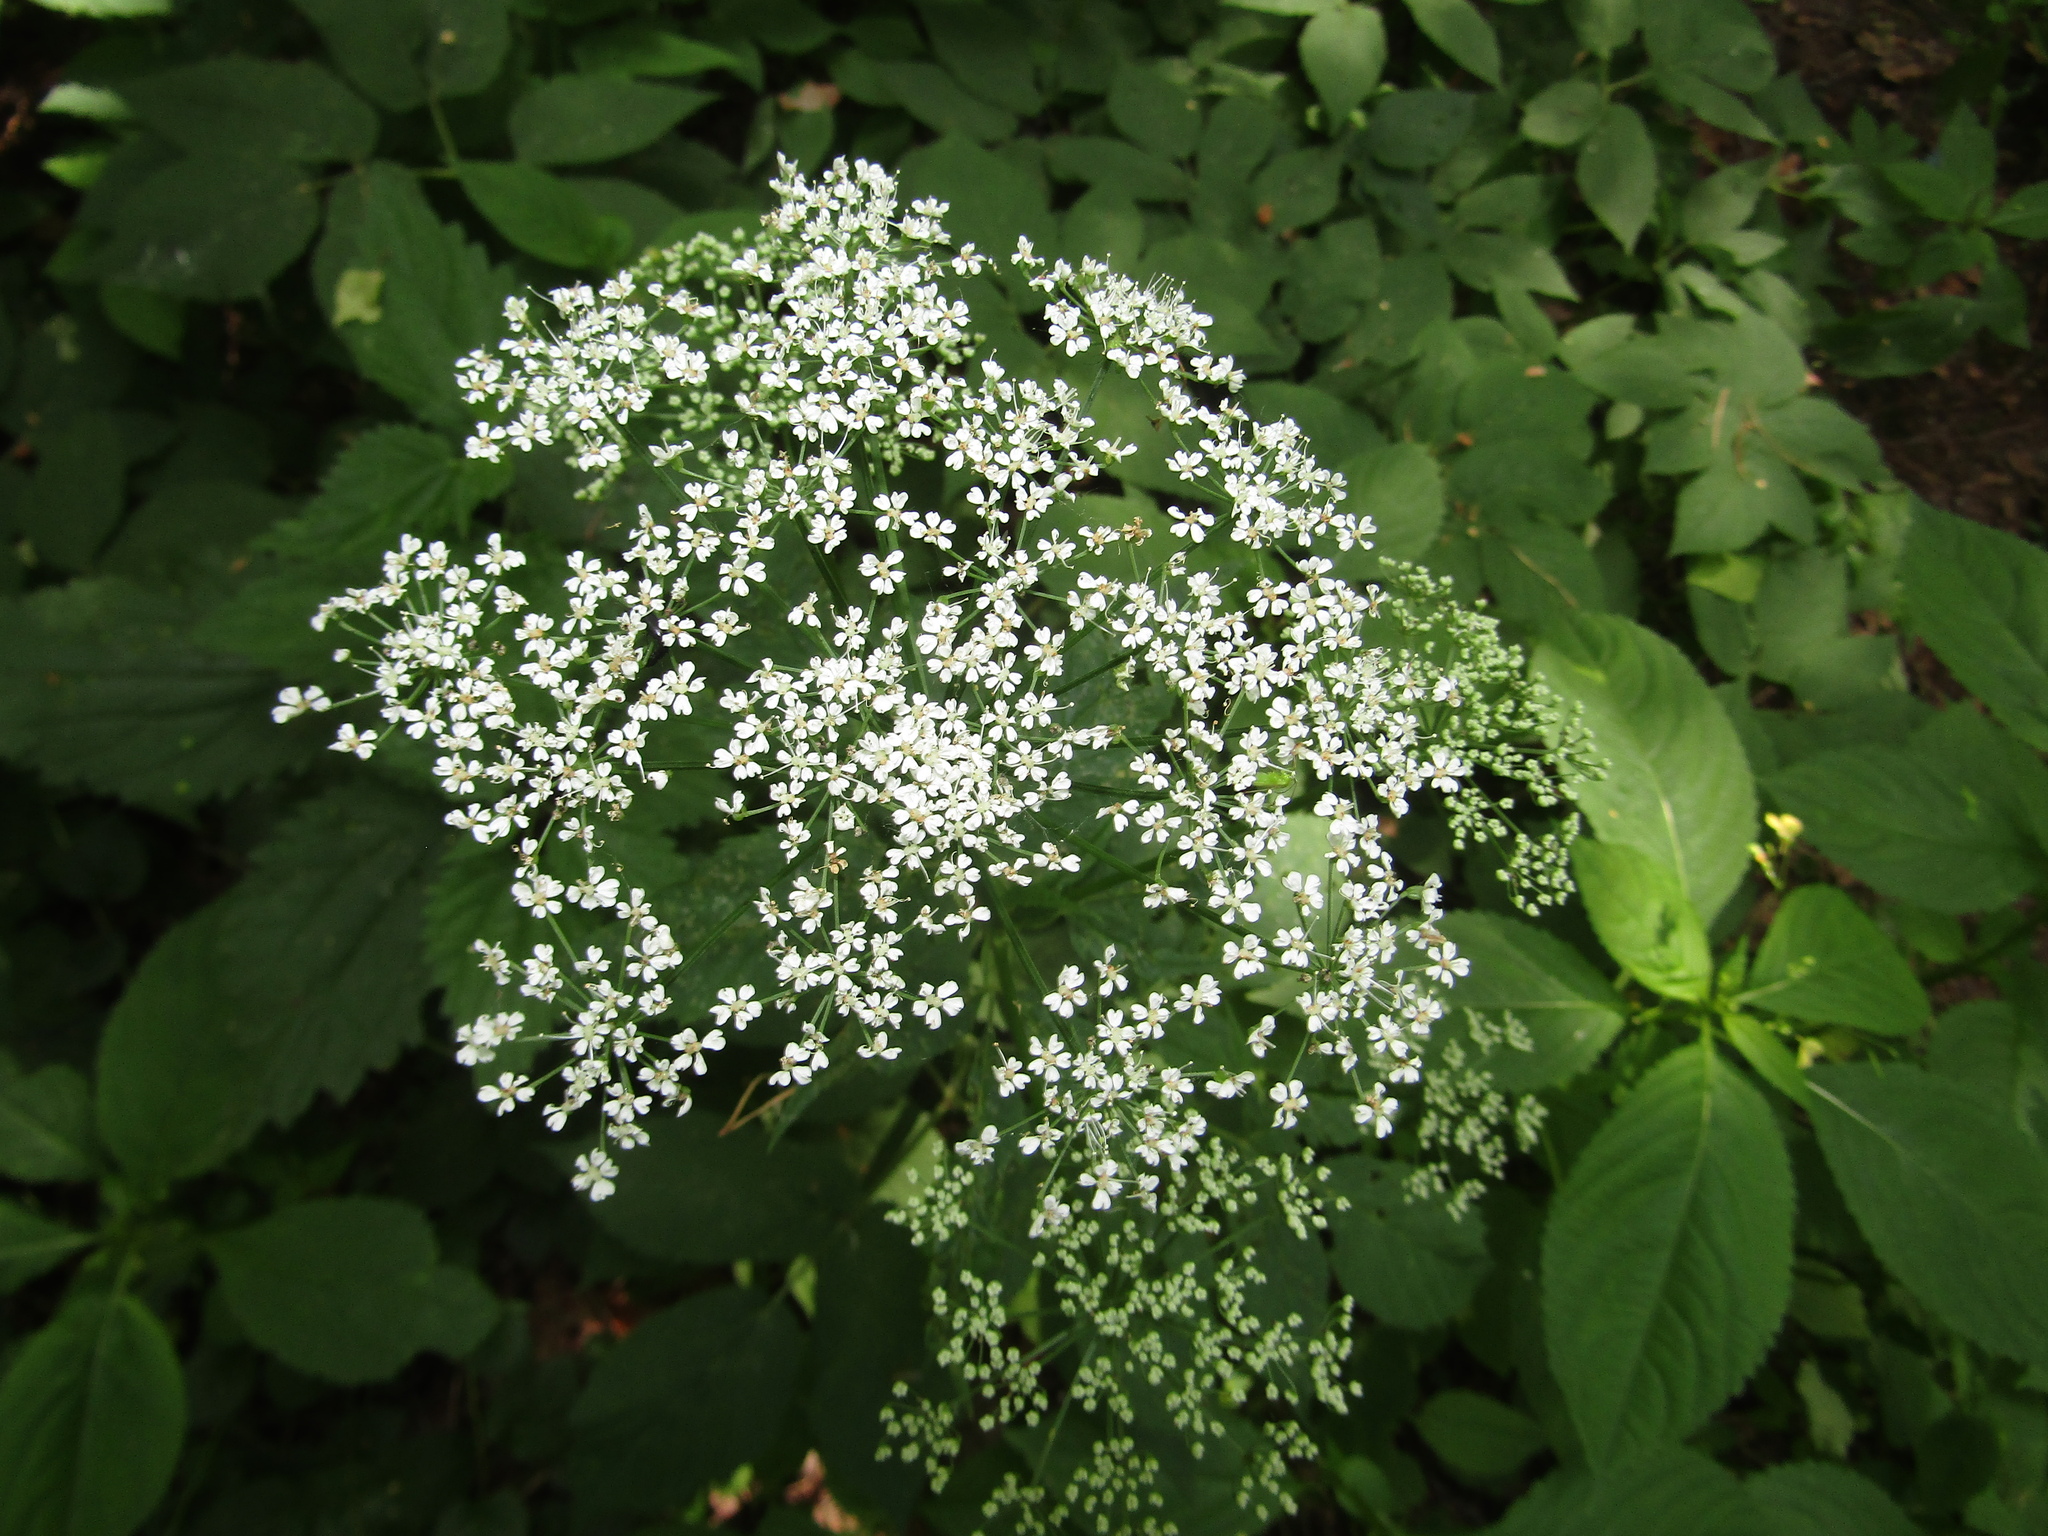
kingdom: Plantae
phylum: Tracheophyta
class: Magnoliopsida
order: Apiales
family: Apiaceae
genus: Aegopodium
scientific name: Aegopodium podagraria
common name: Ground-elder
